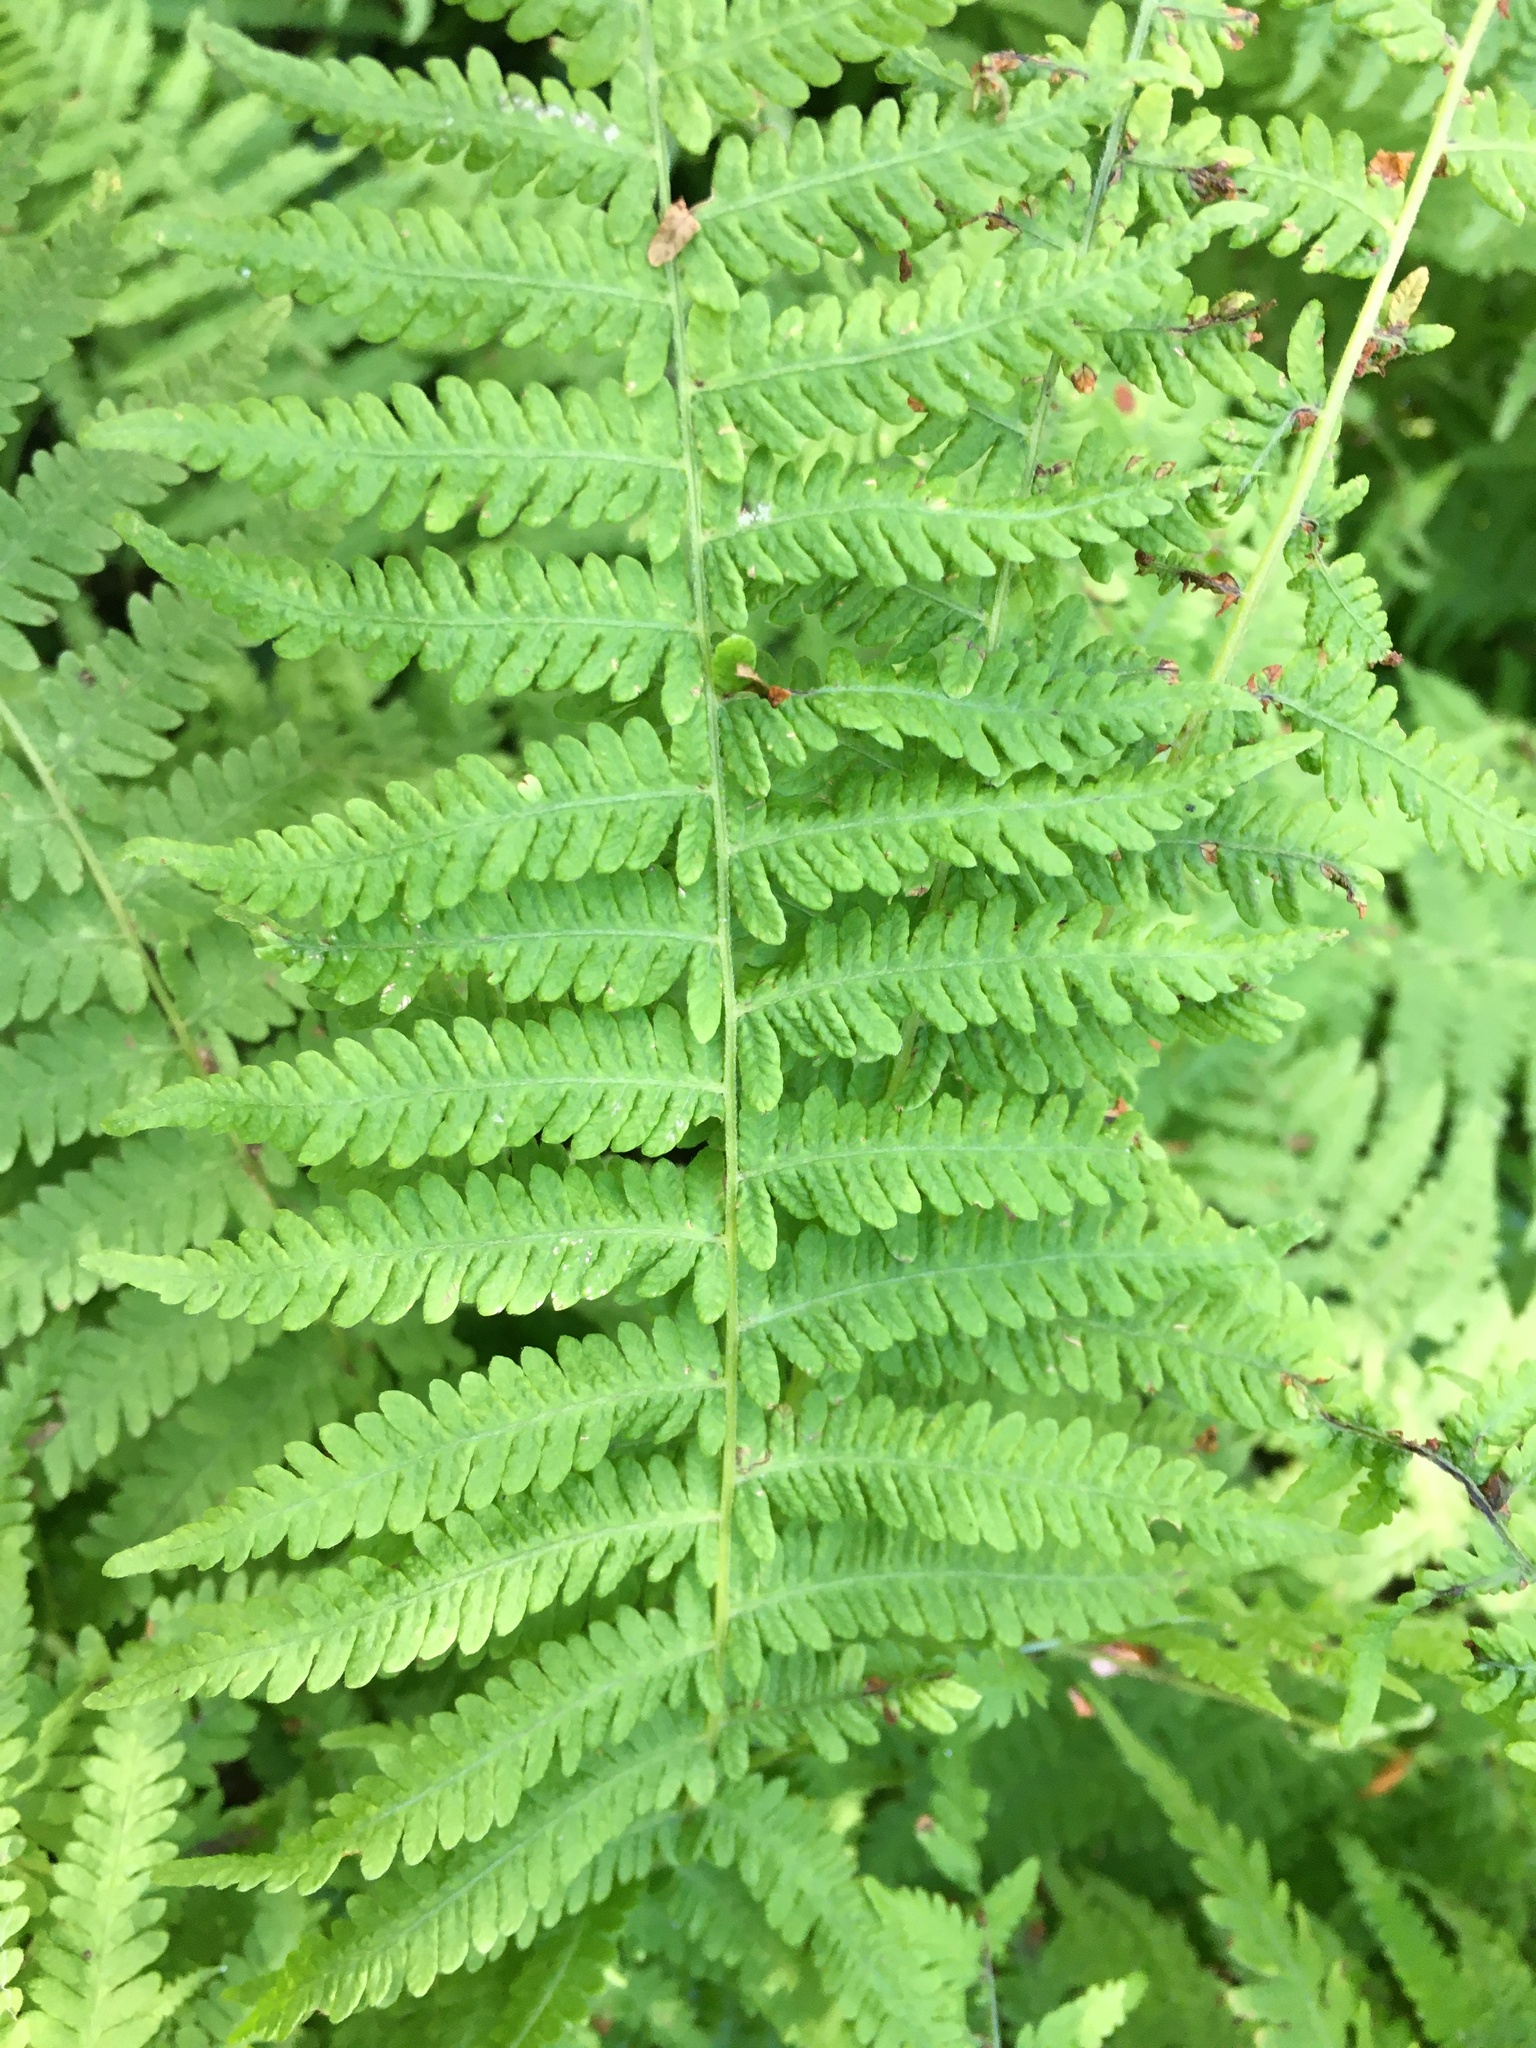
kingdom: Plantae
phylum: Tracheophyta
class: Polypodiopsida
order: Polypodiales
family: Thelypteridaceae
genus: Amauropelta
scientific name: Amauropelta noveboracensis
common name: New york fern
